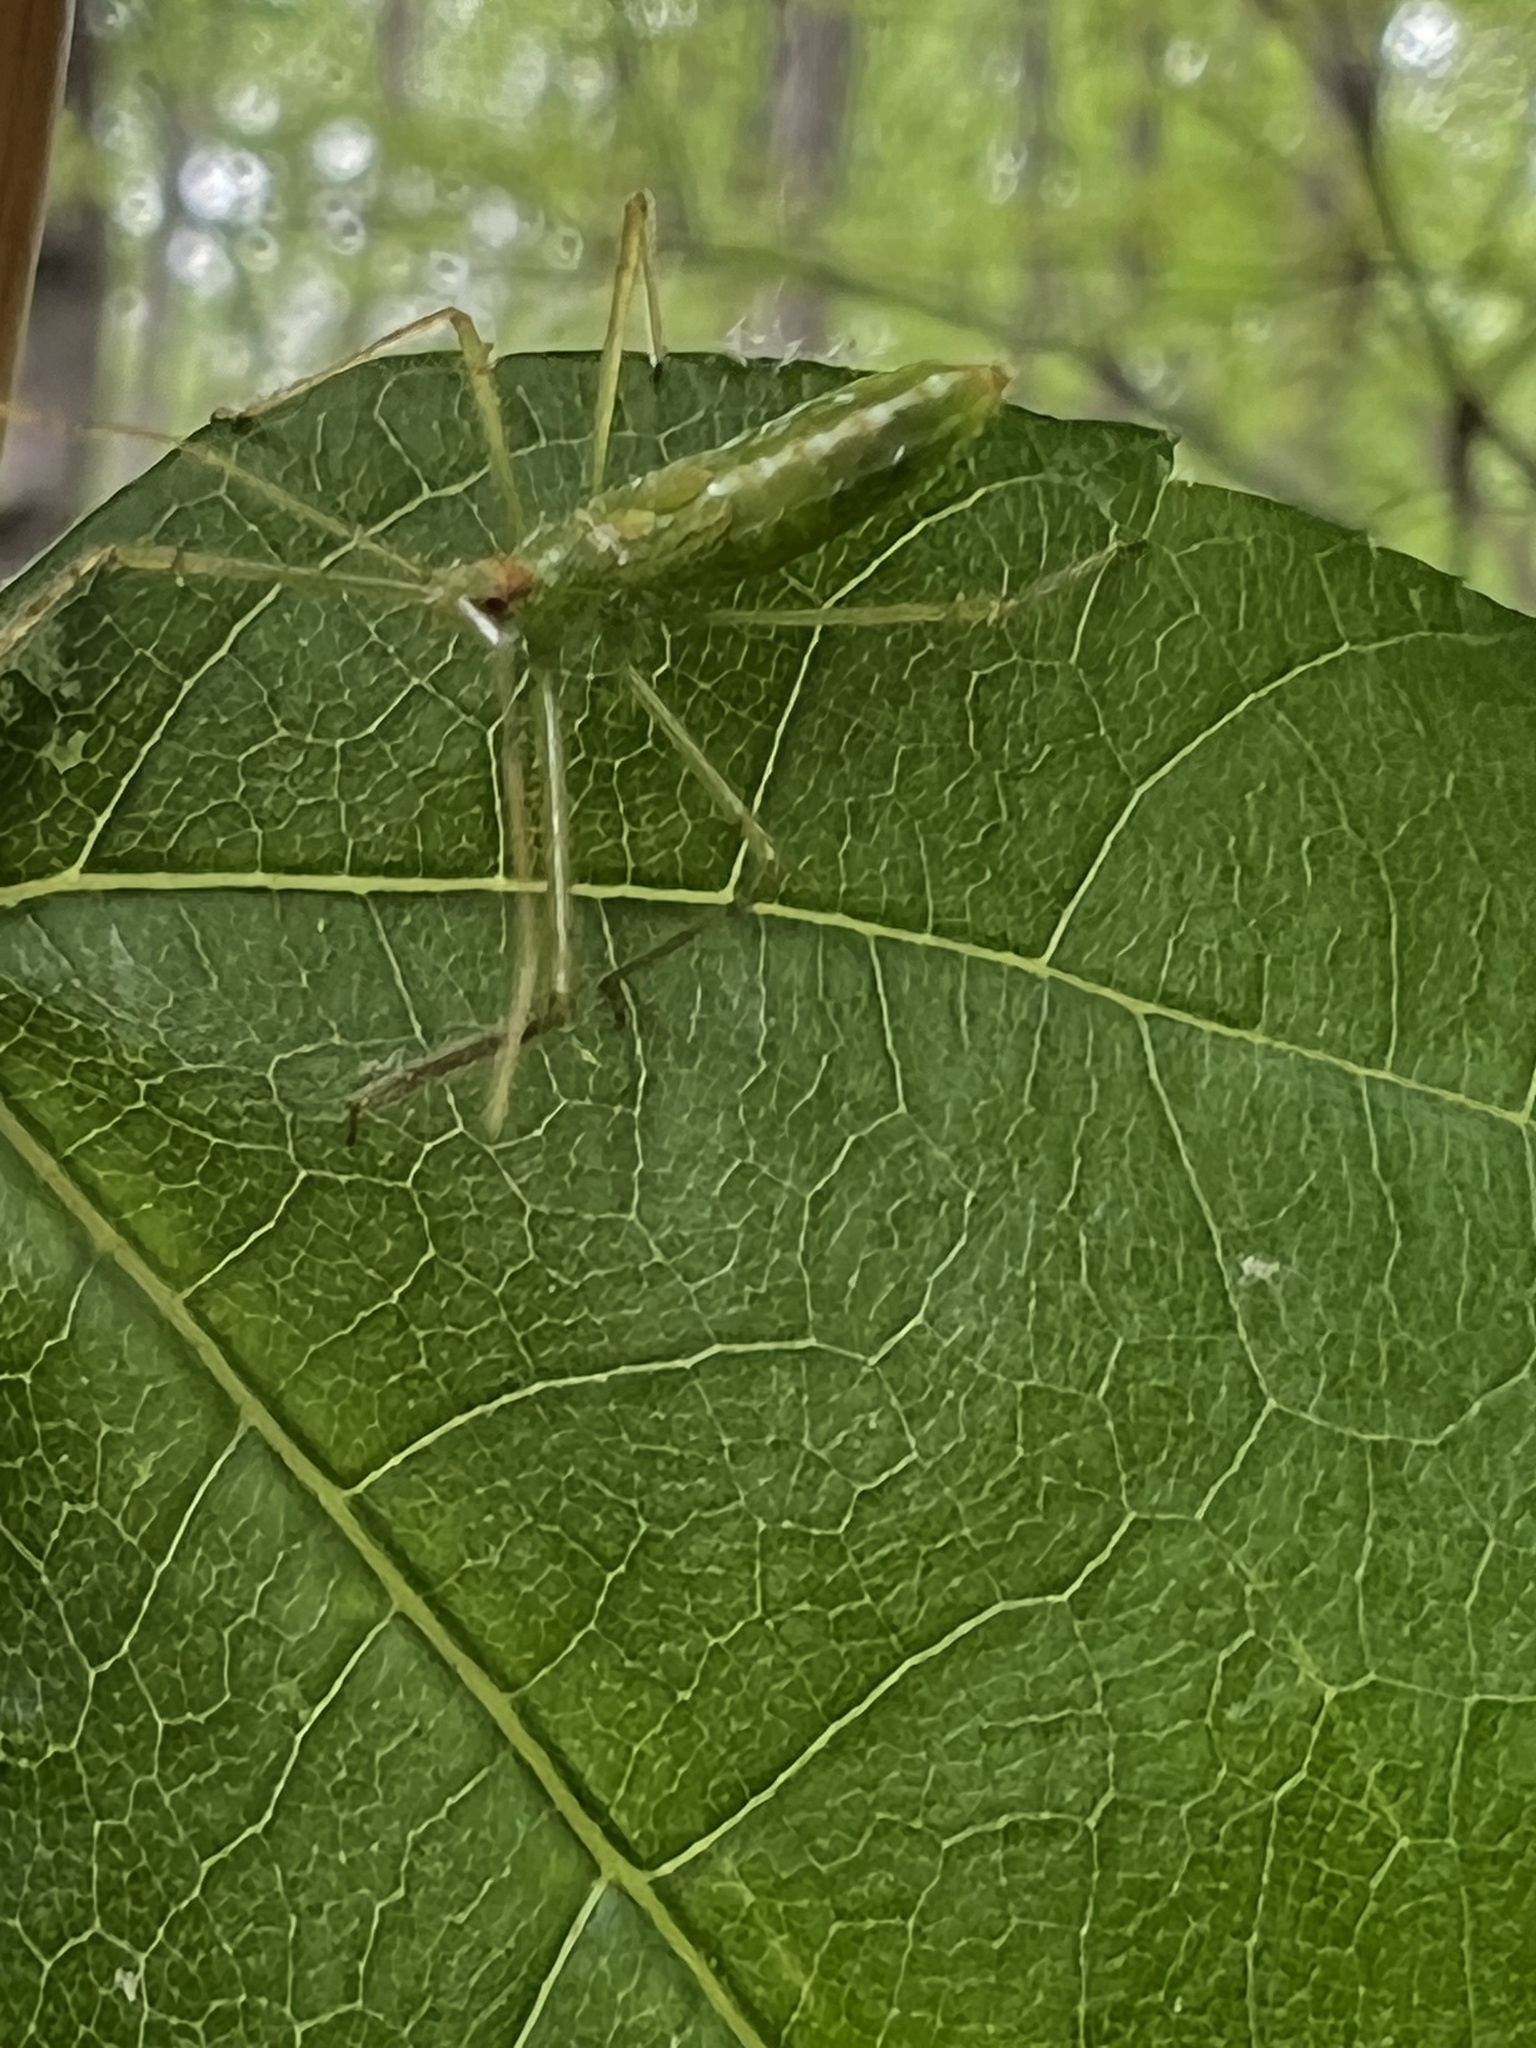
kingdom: Animalia
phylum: Arthropoda
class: Insecta
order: Hemiptera
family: Reduviidae
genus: Zelus
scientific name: Zelus luridus
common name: Pale green assassin bug
